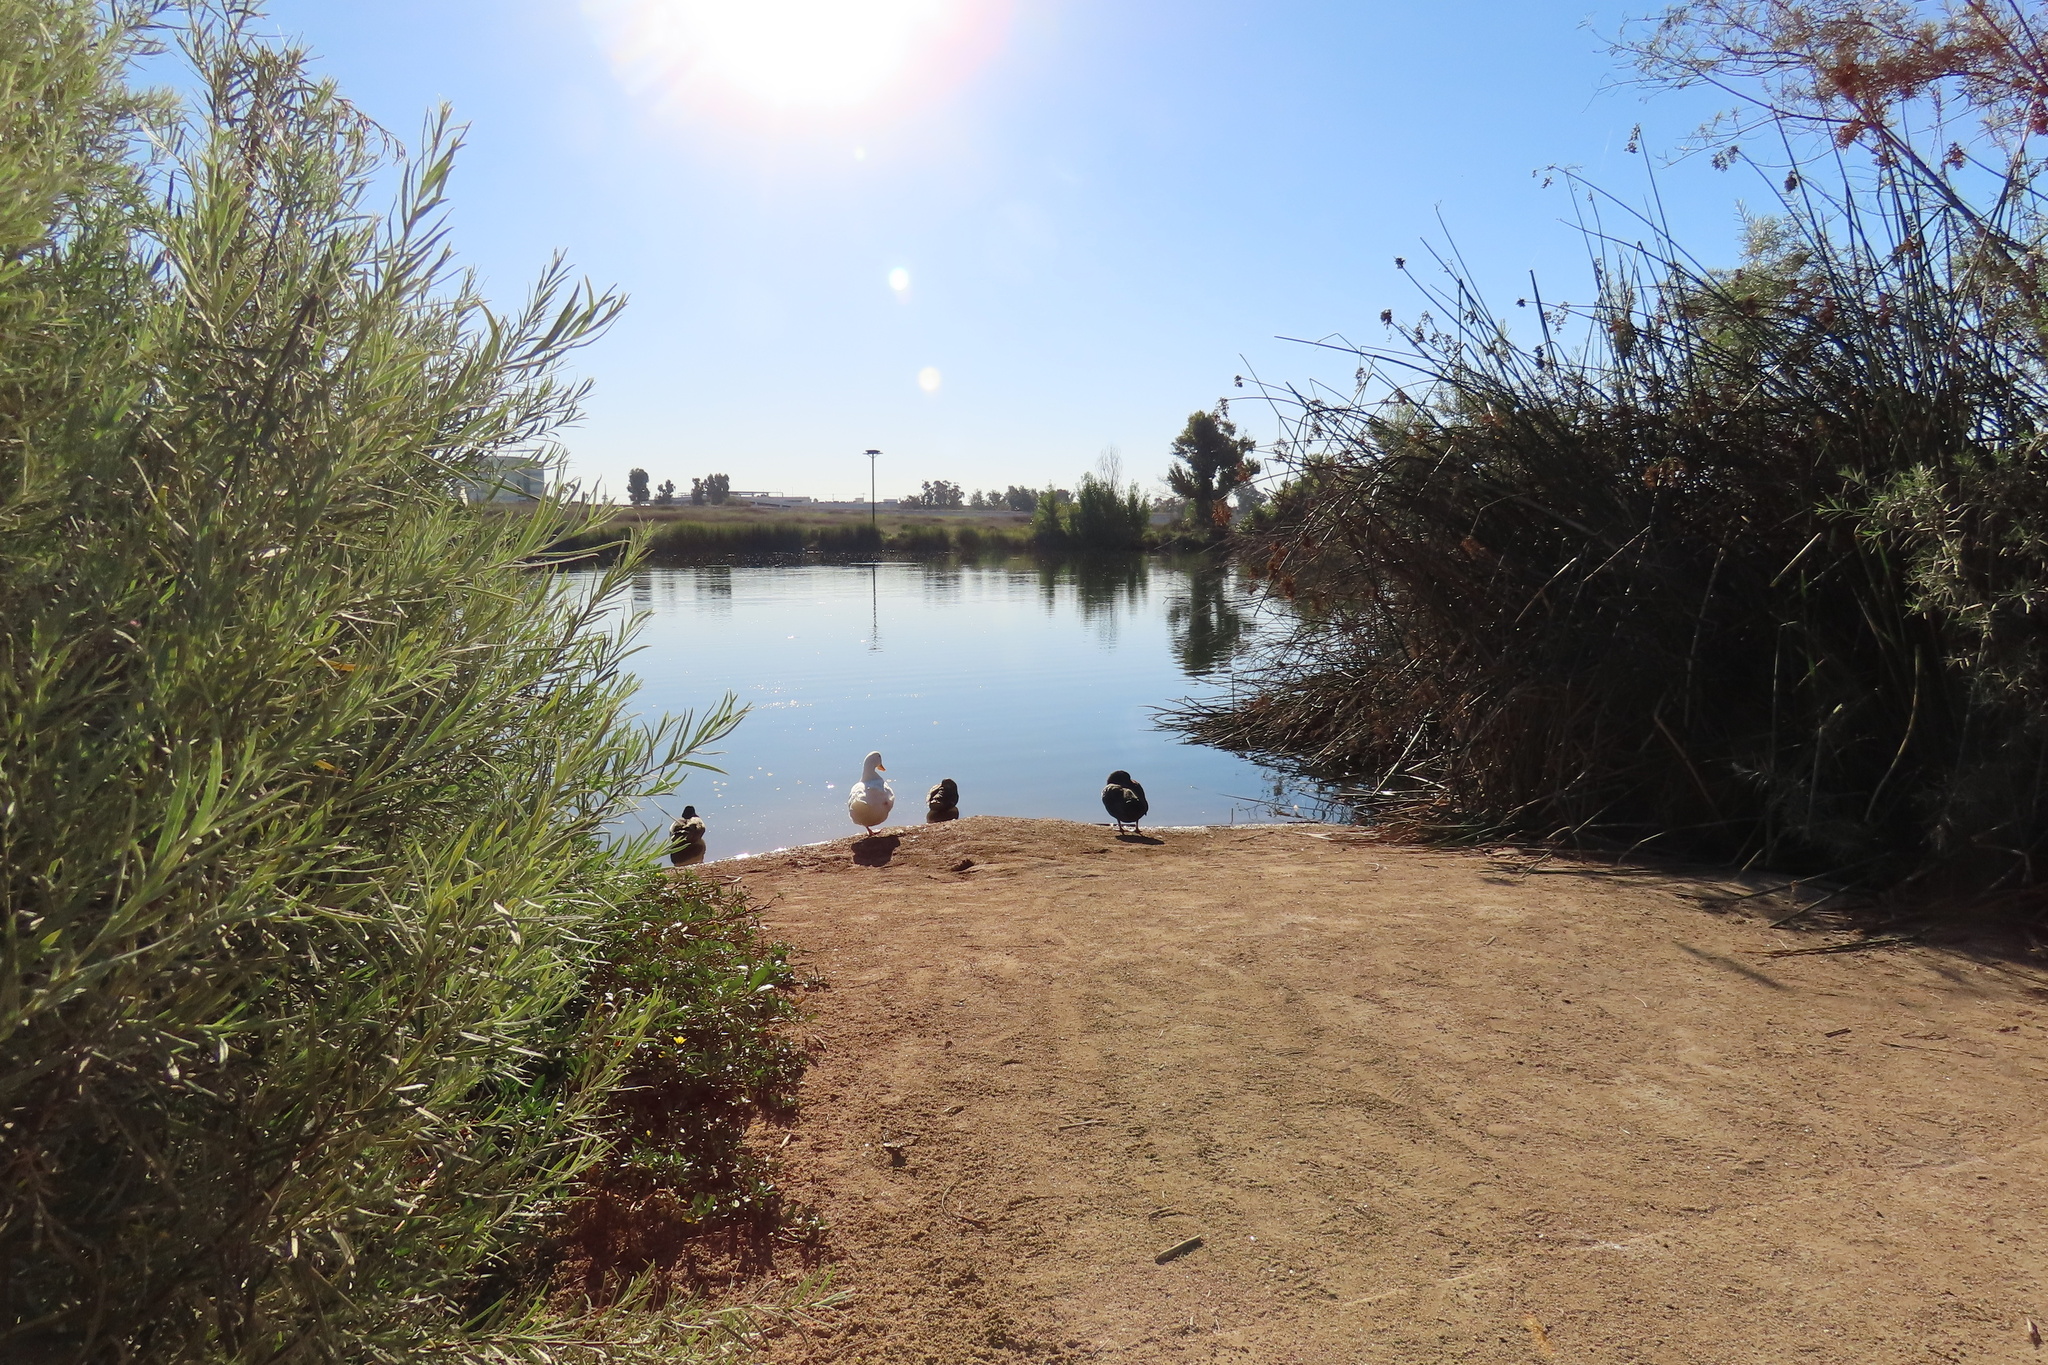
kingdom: Animalia
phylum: Chordata
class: Aves
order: Anseriformes
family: Anatidae
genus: Anas
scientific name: Anas platyrhynchos
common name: Mallard
